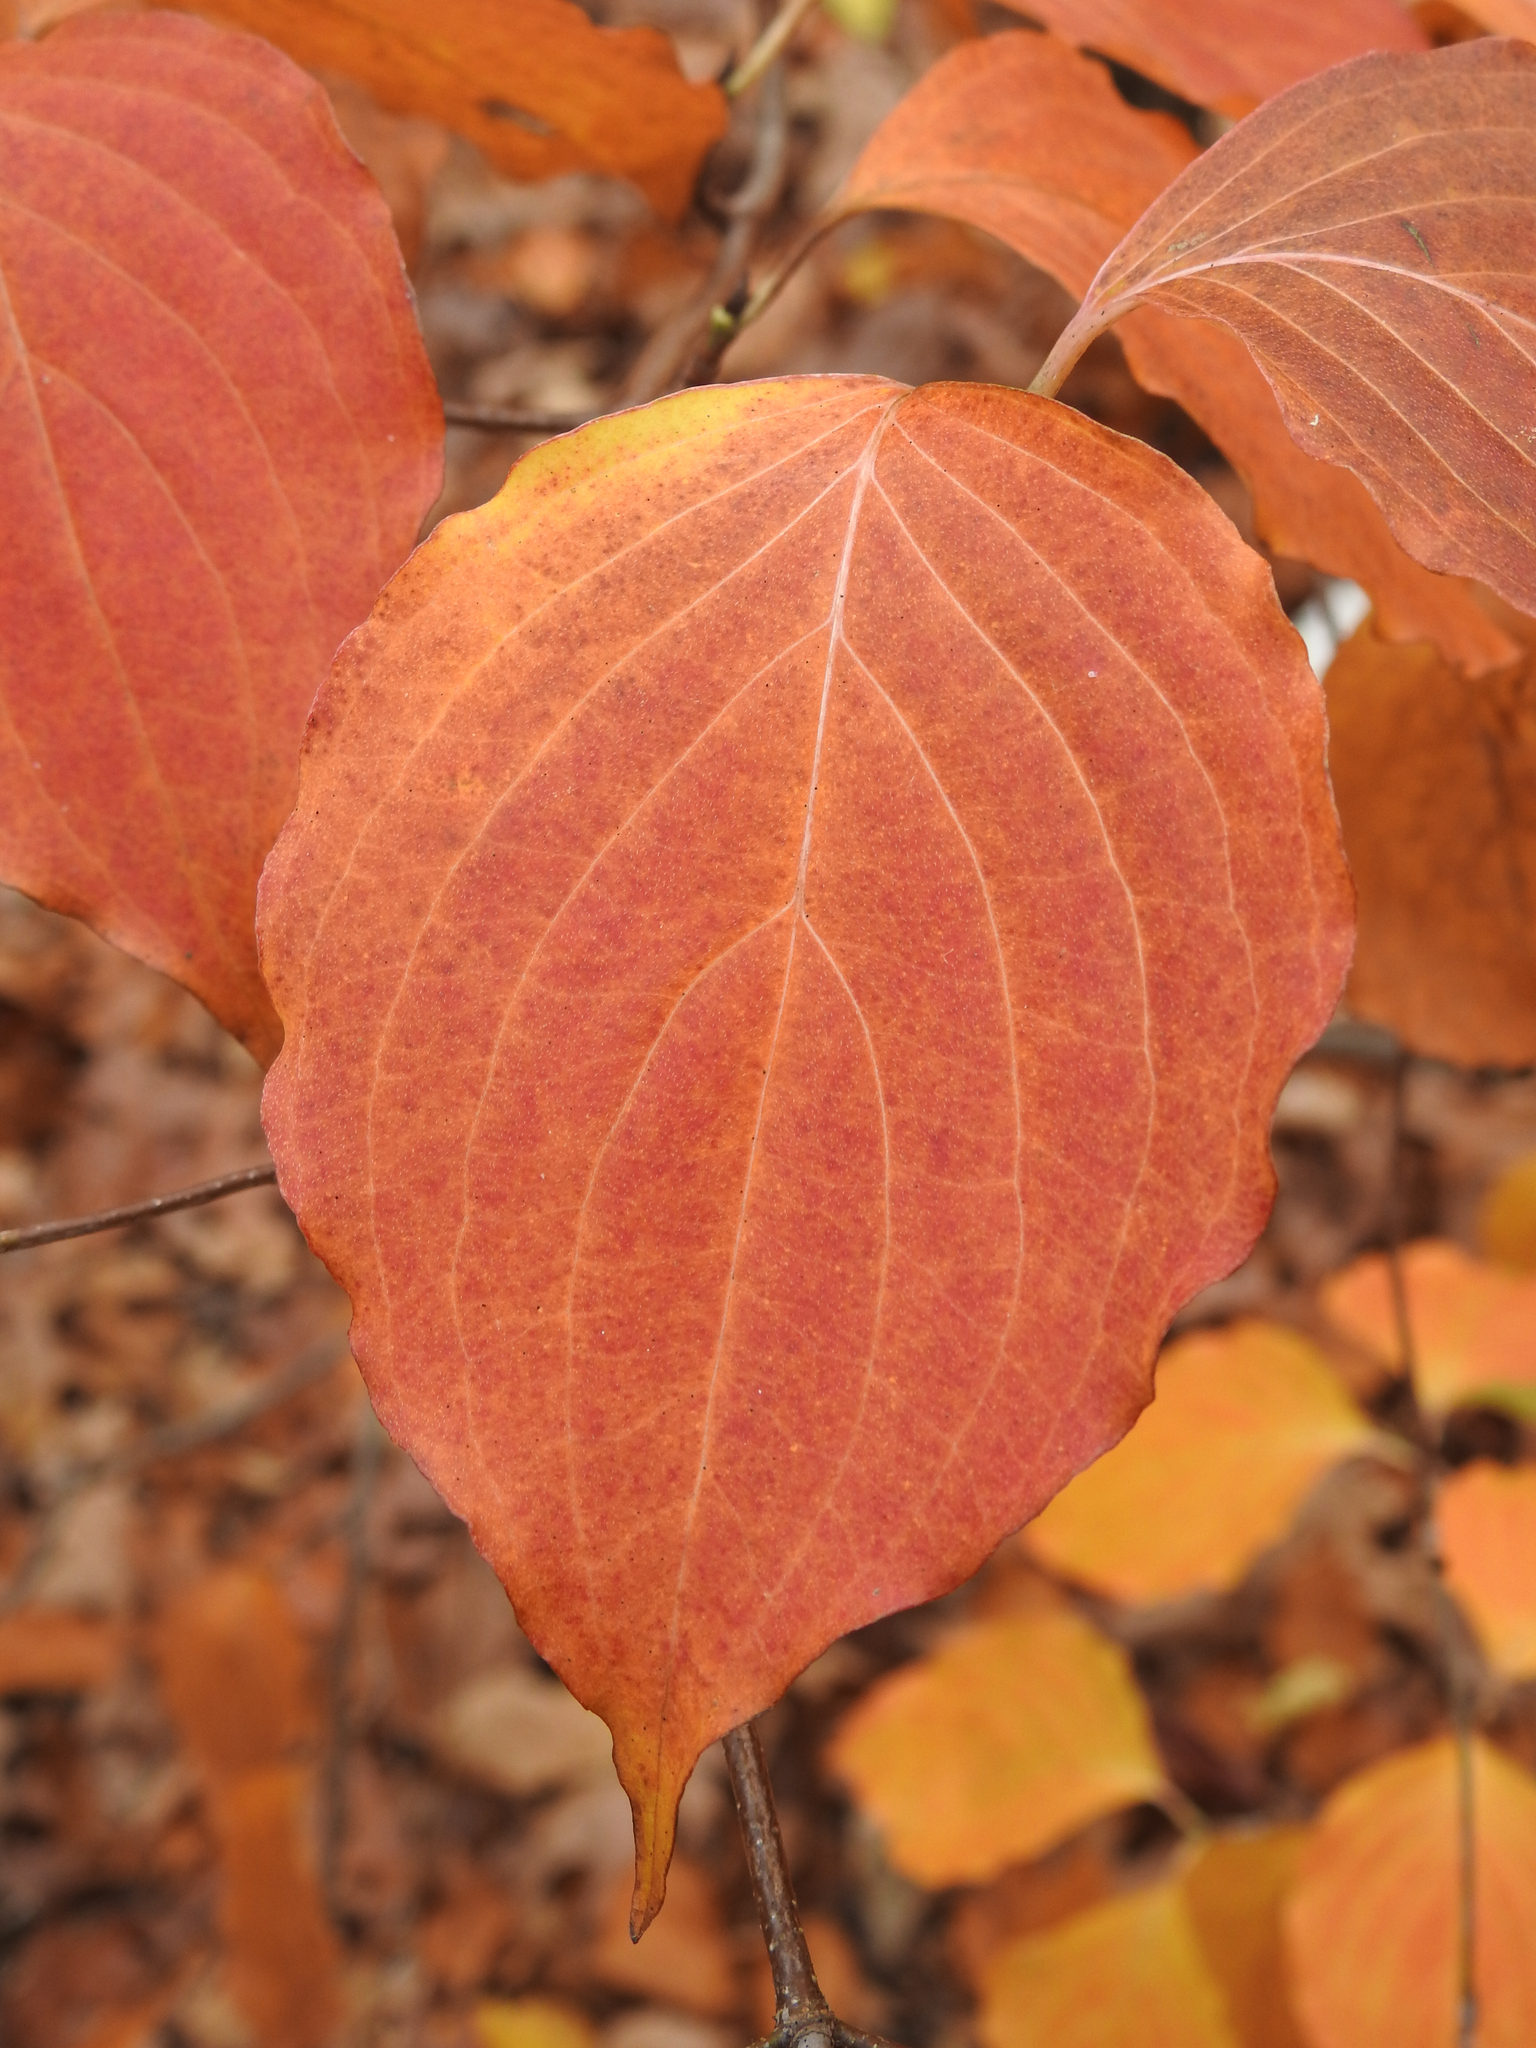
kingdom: Plantae
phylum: Tracheophyta
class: Magnoliopsida
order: Cornales
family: Cornaceae
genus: Cornus
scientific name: Cornus rugosa
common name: Round-leaf dogwood
